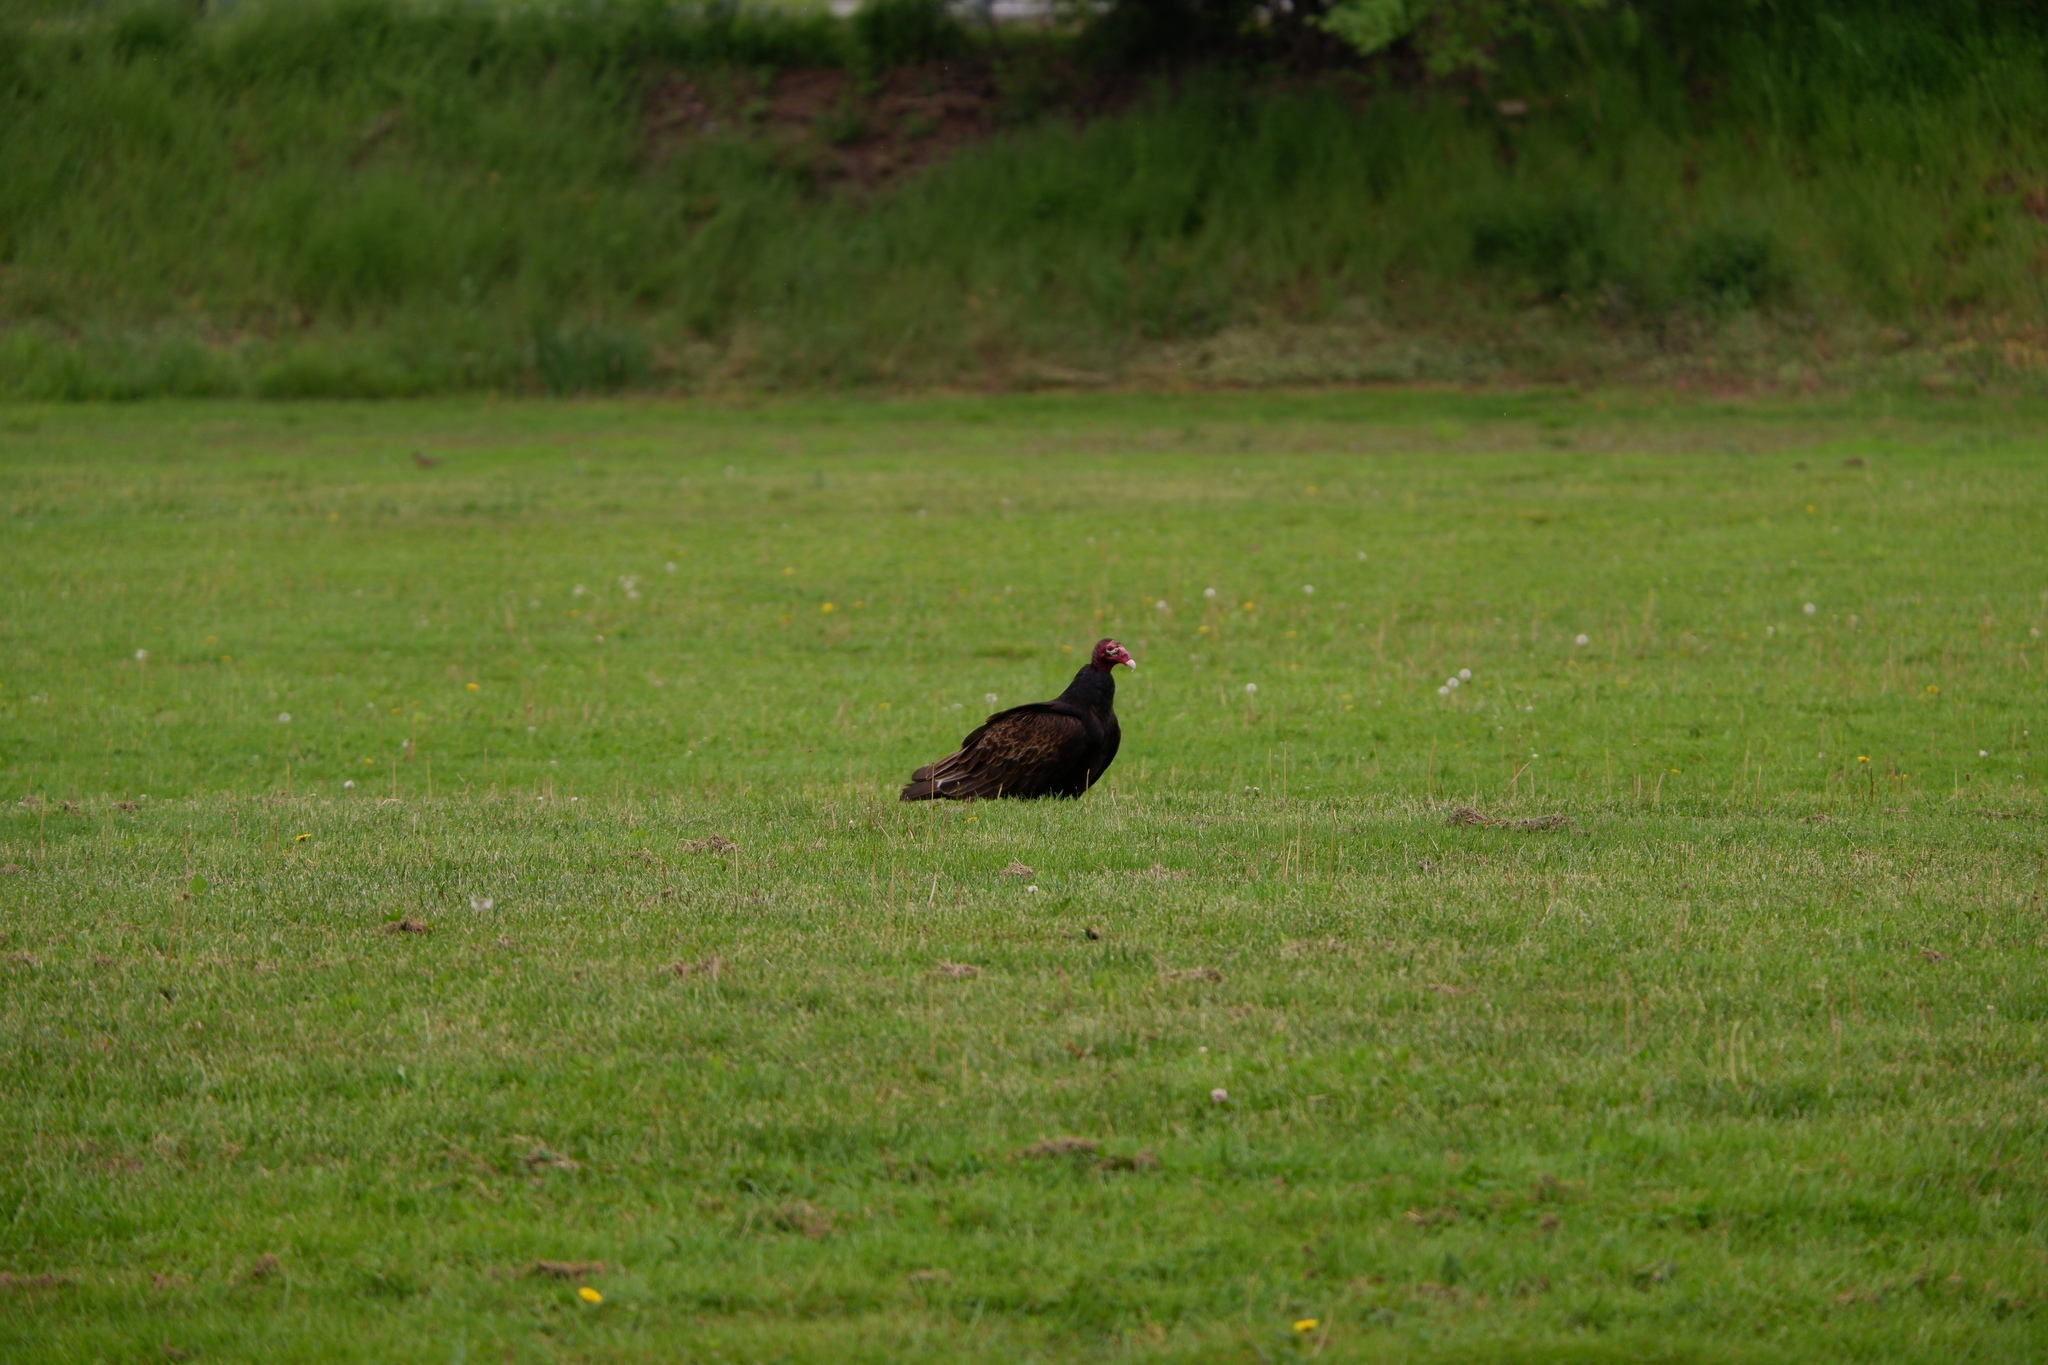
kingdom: Animalia
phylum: Chordata
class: Aves
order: Accipitriformes
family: Cathartidae
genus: Cathartes
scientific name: Cathartes aura
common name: Turkey vulture
